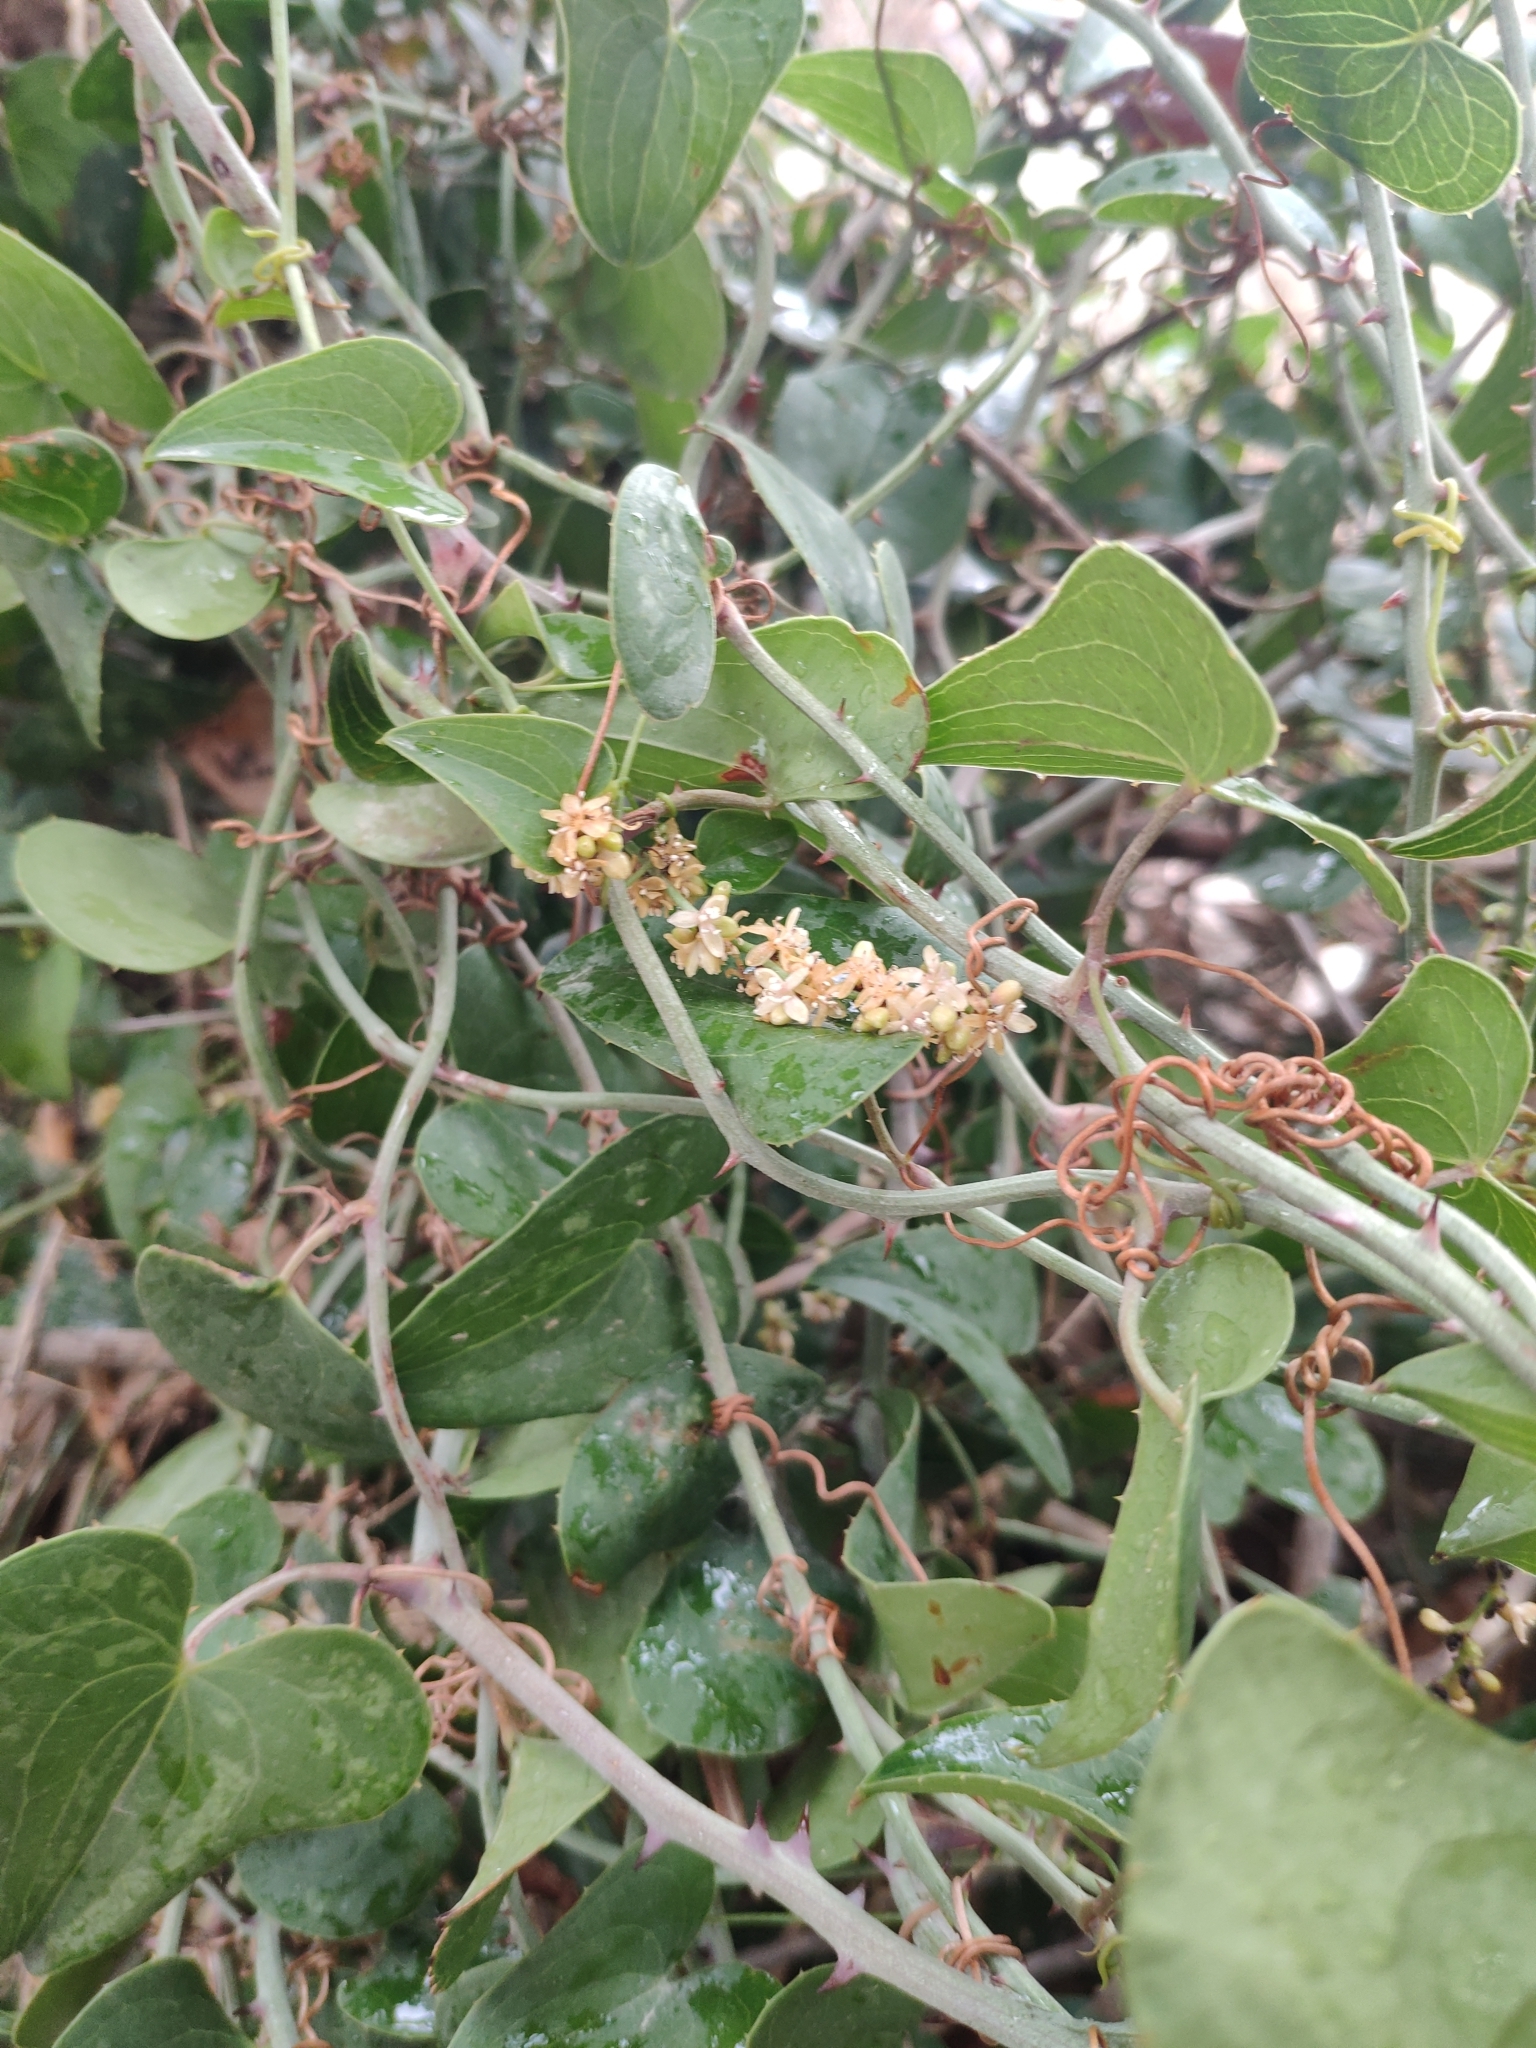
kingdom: Plantae
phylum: Tracheophyta
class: Liliopsida
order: Liliales
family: Smilacaceae
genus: Smilax
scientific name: Smilax aspera
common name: Common smilax
